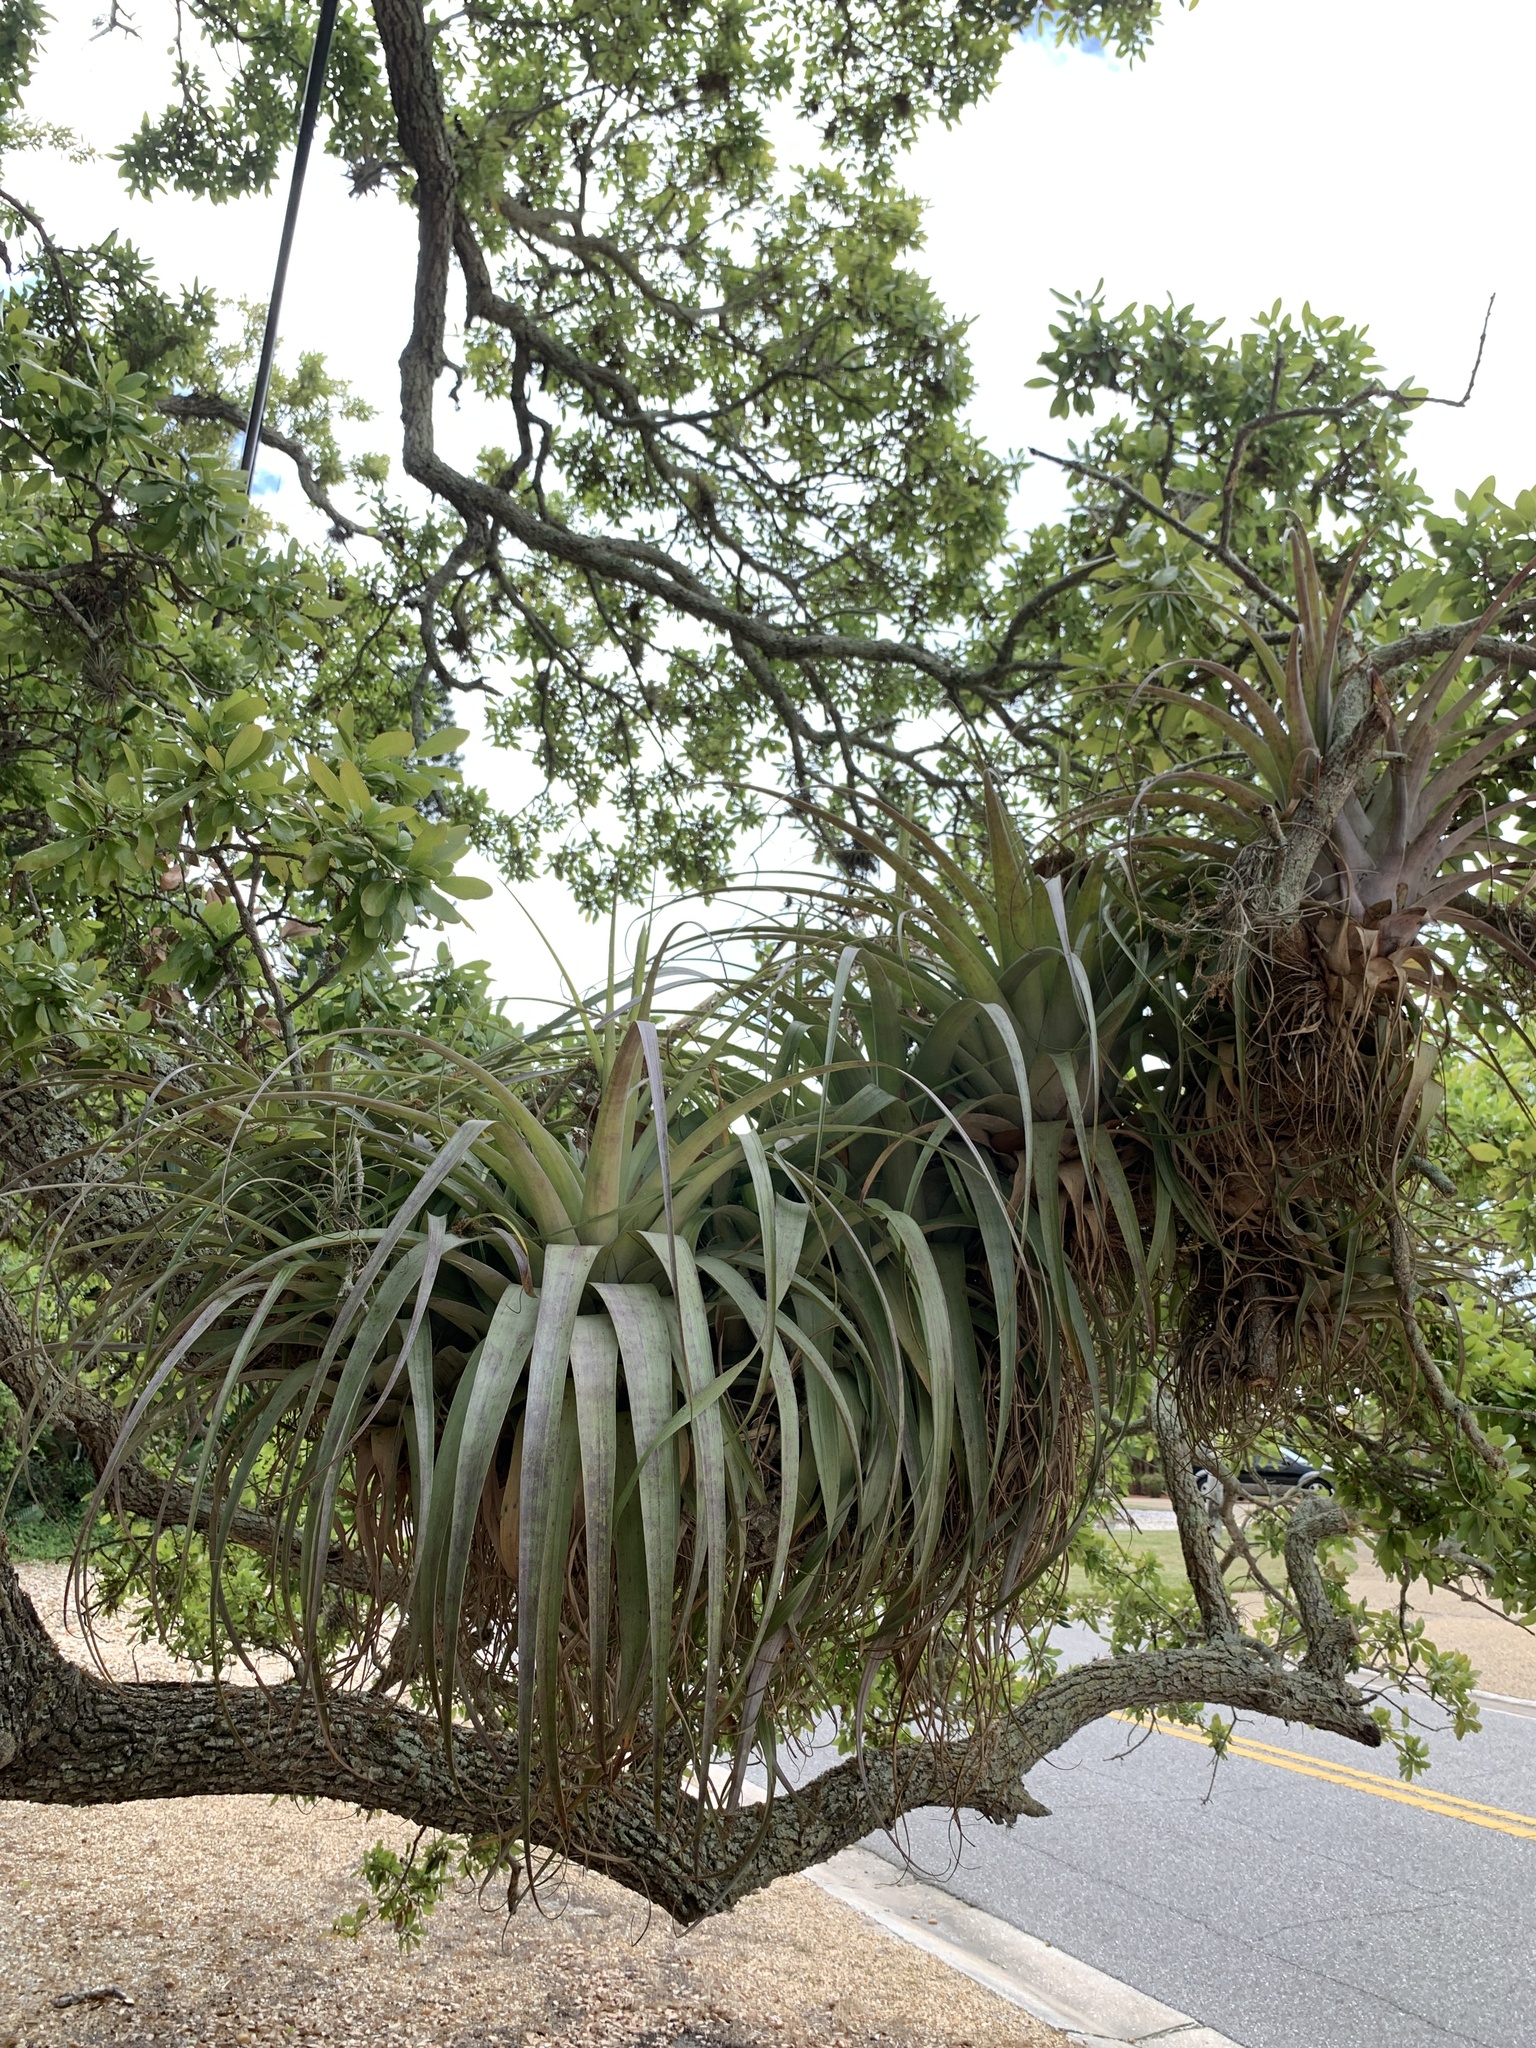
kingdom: Plantae
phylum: Tracheophyta
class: Liliopsida
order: Poales
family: Bromeliaceae
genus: Tillandsia
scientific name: Tillandsia utriculata
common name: Wild pine
